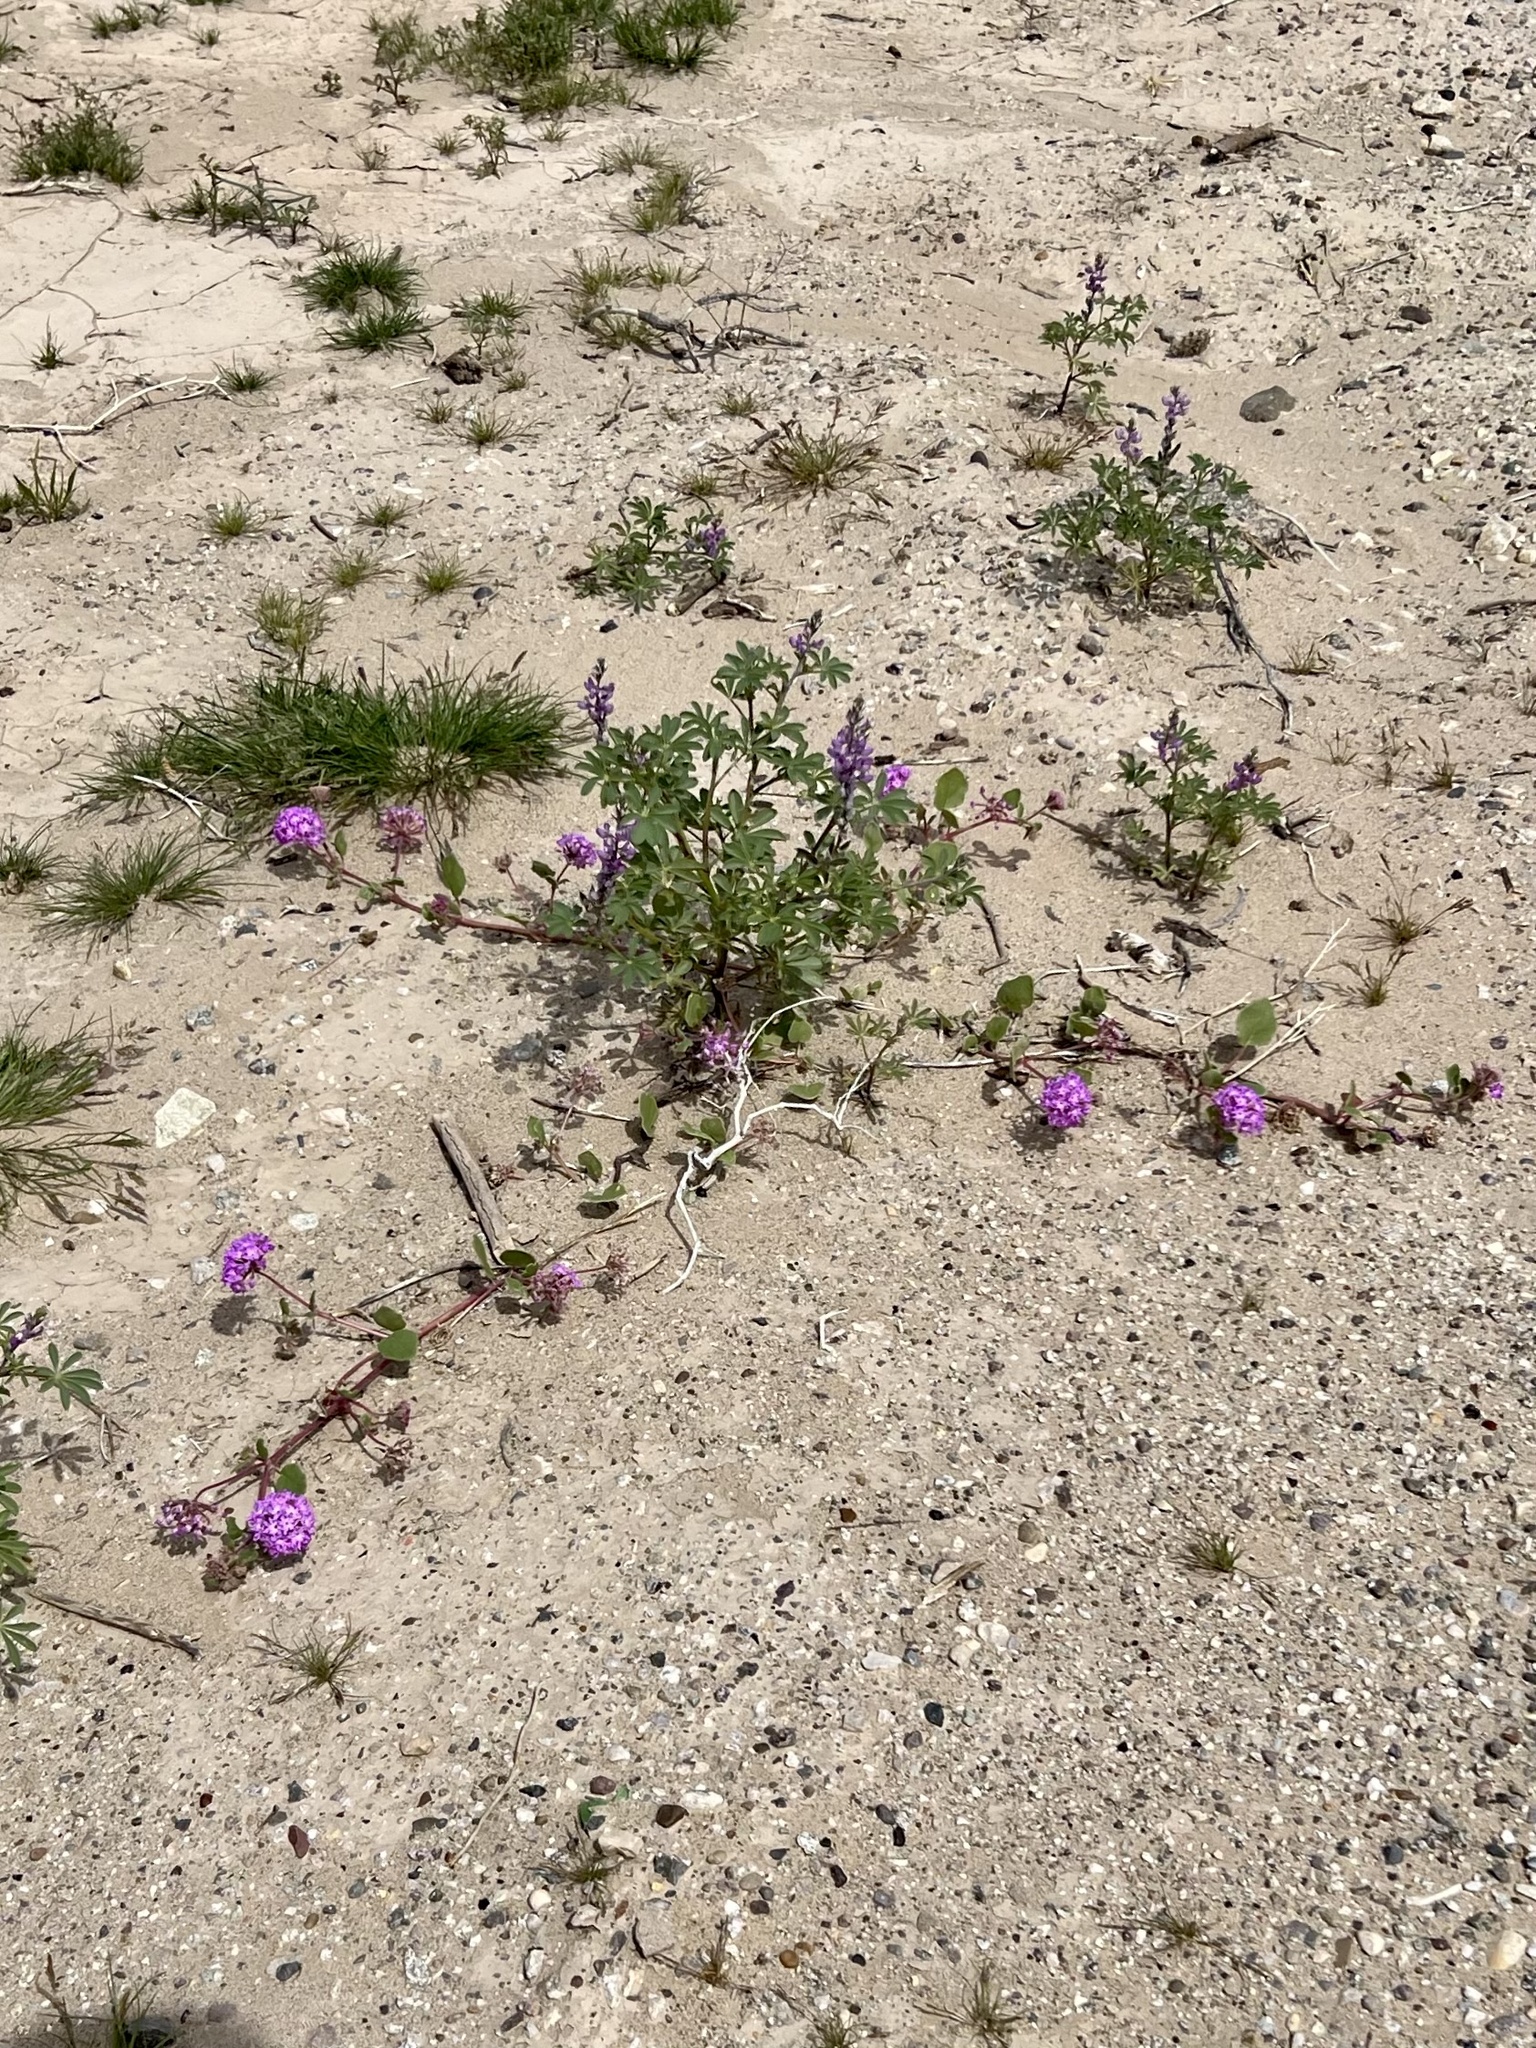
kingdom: Plantae
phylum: Tracheophyta
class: Magnoliopsida
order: Caryophyllales
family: Nyctaginaceae
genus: Abronia
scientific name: Abronia villosa
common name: Desert sand-verbena
